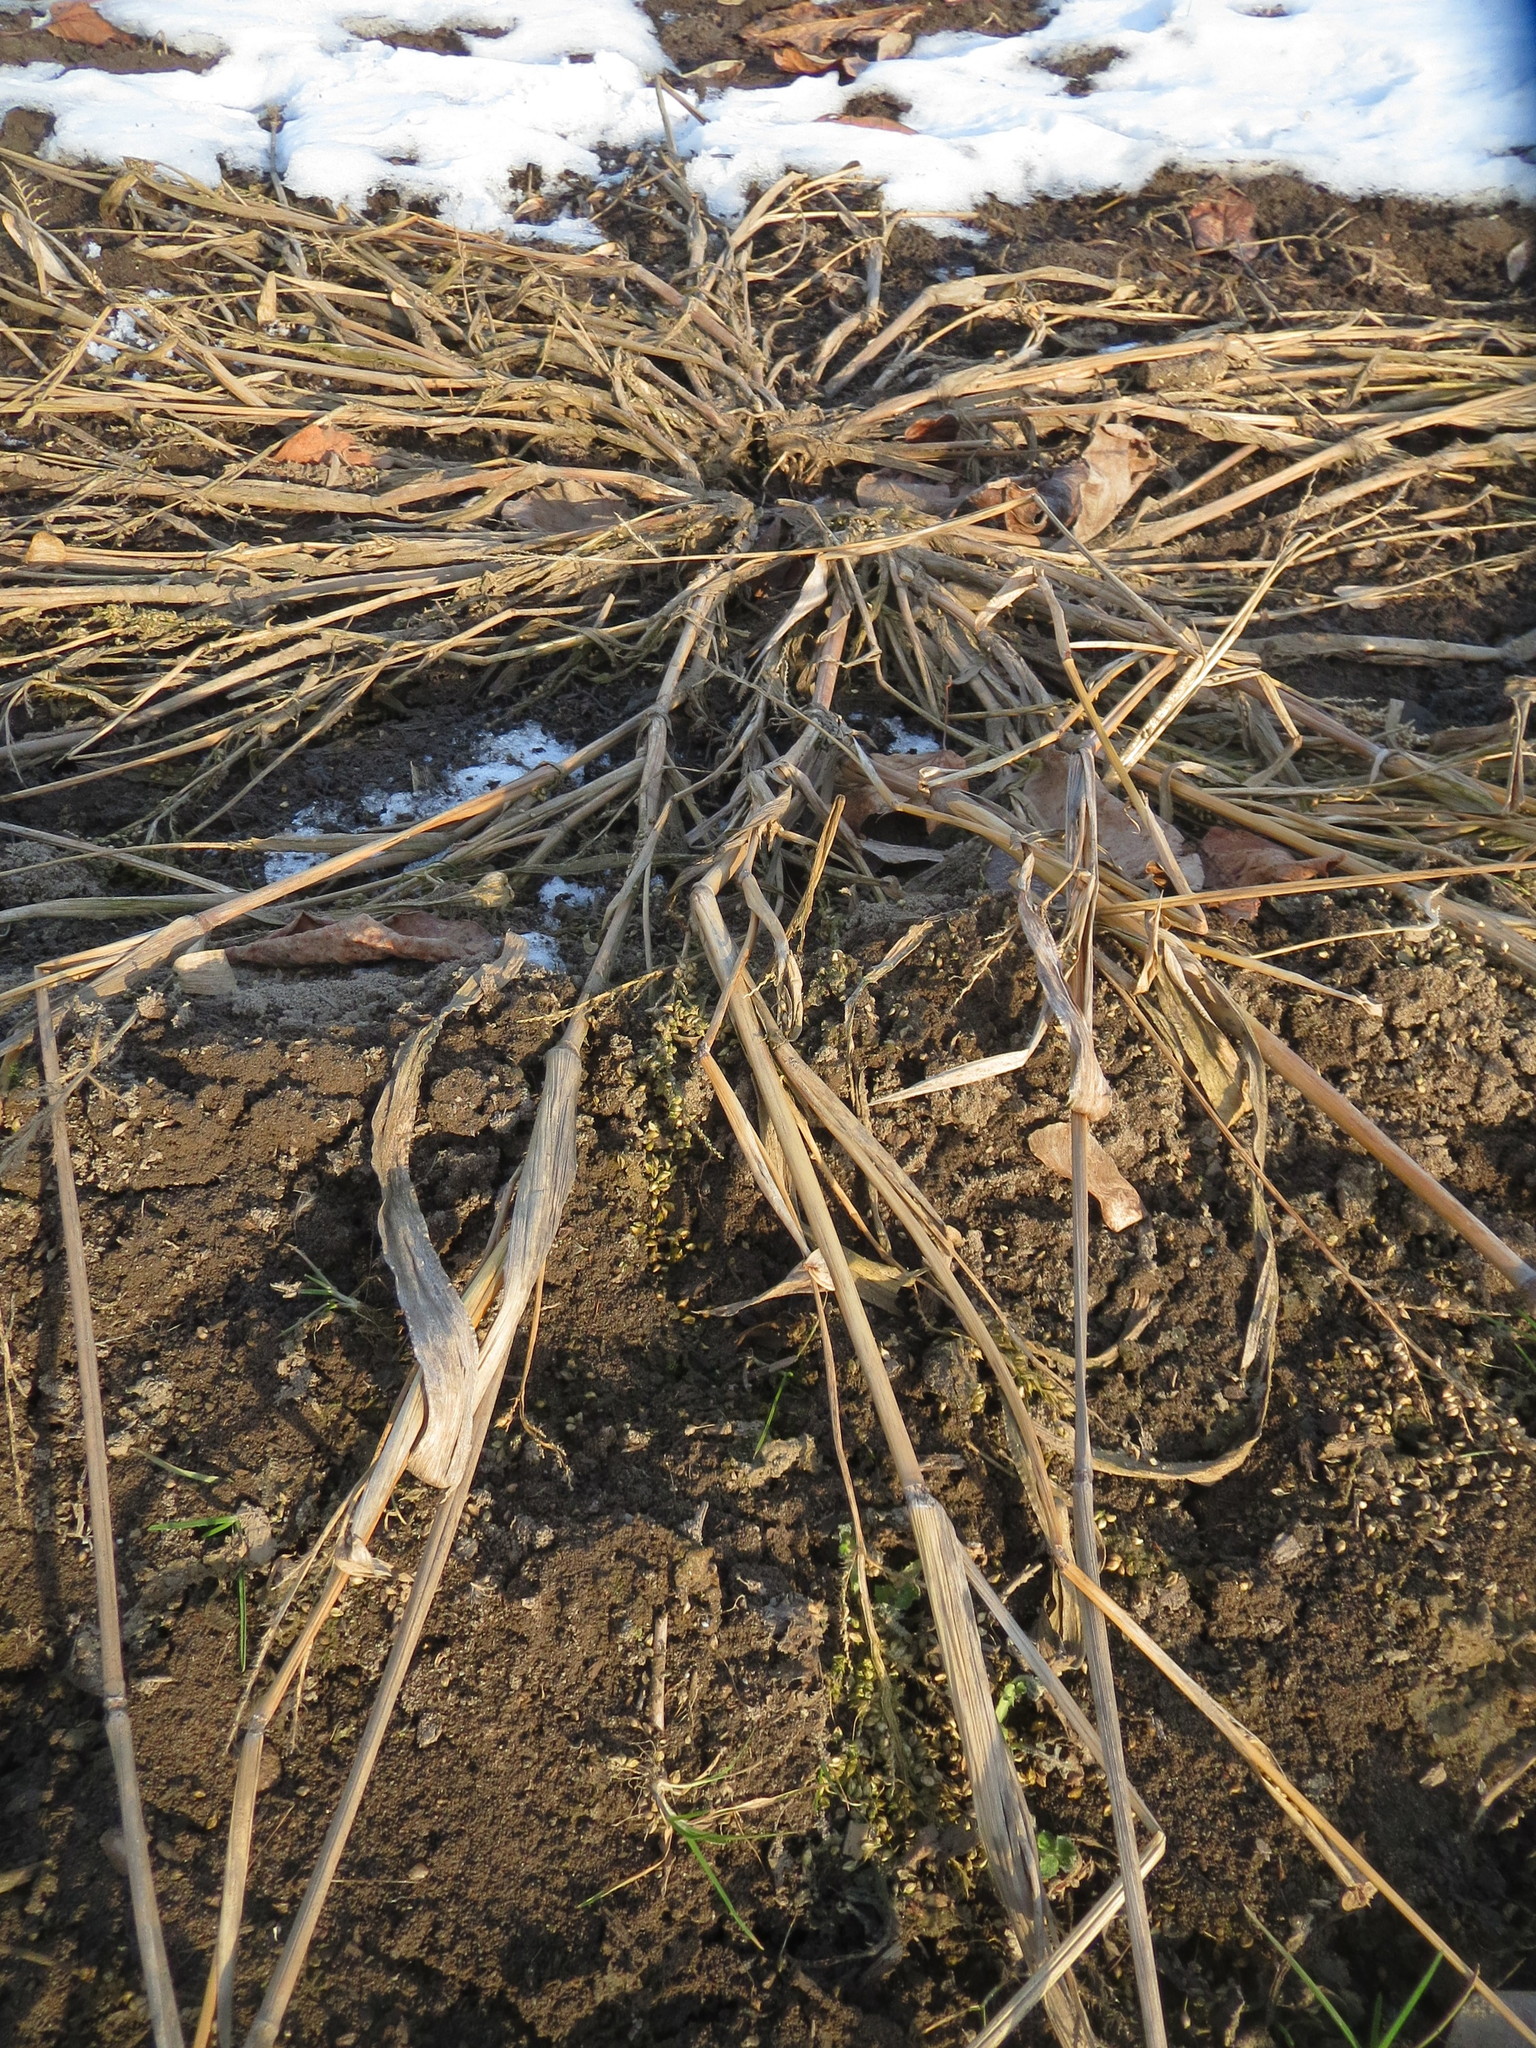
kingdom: Plantae
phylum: Tracheophyta
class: Liliopsida
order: Poales
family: Poaceae
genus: Echinochloa
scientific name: Echinochloa crus-galli
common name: Cockspur
